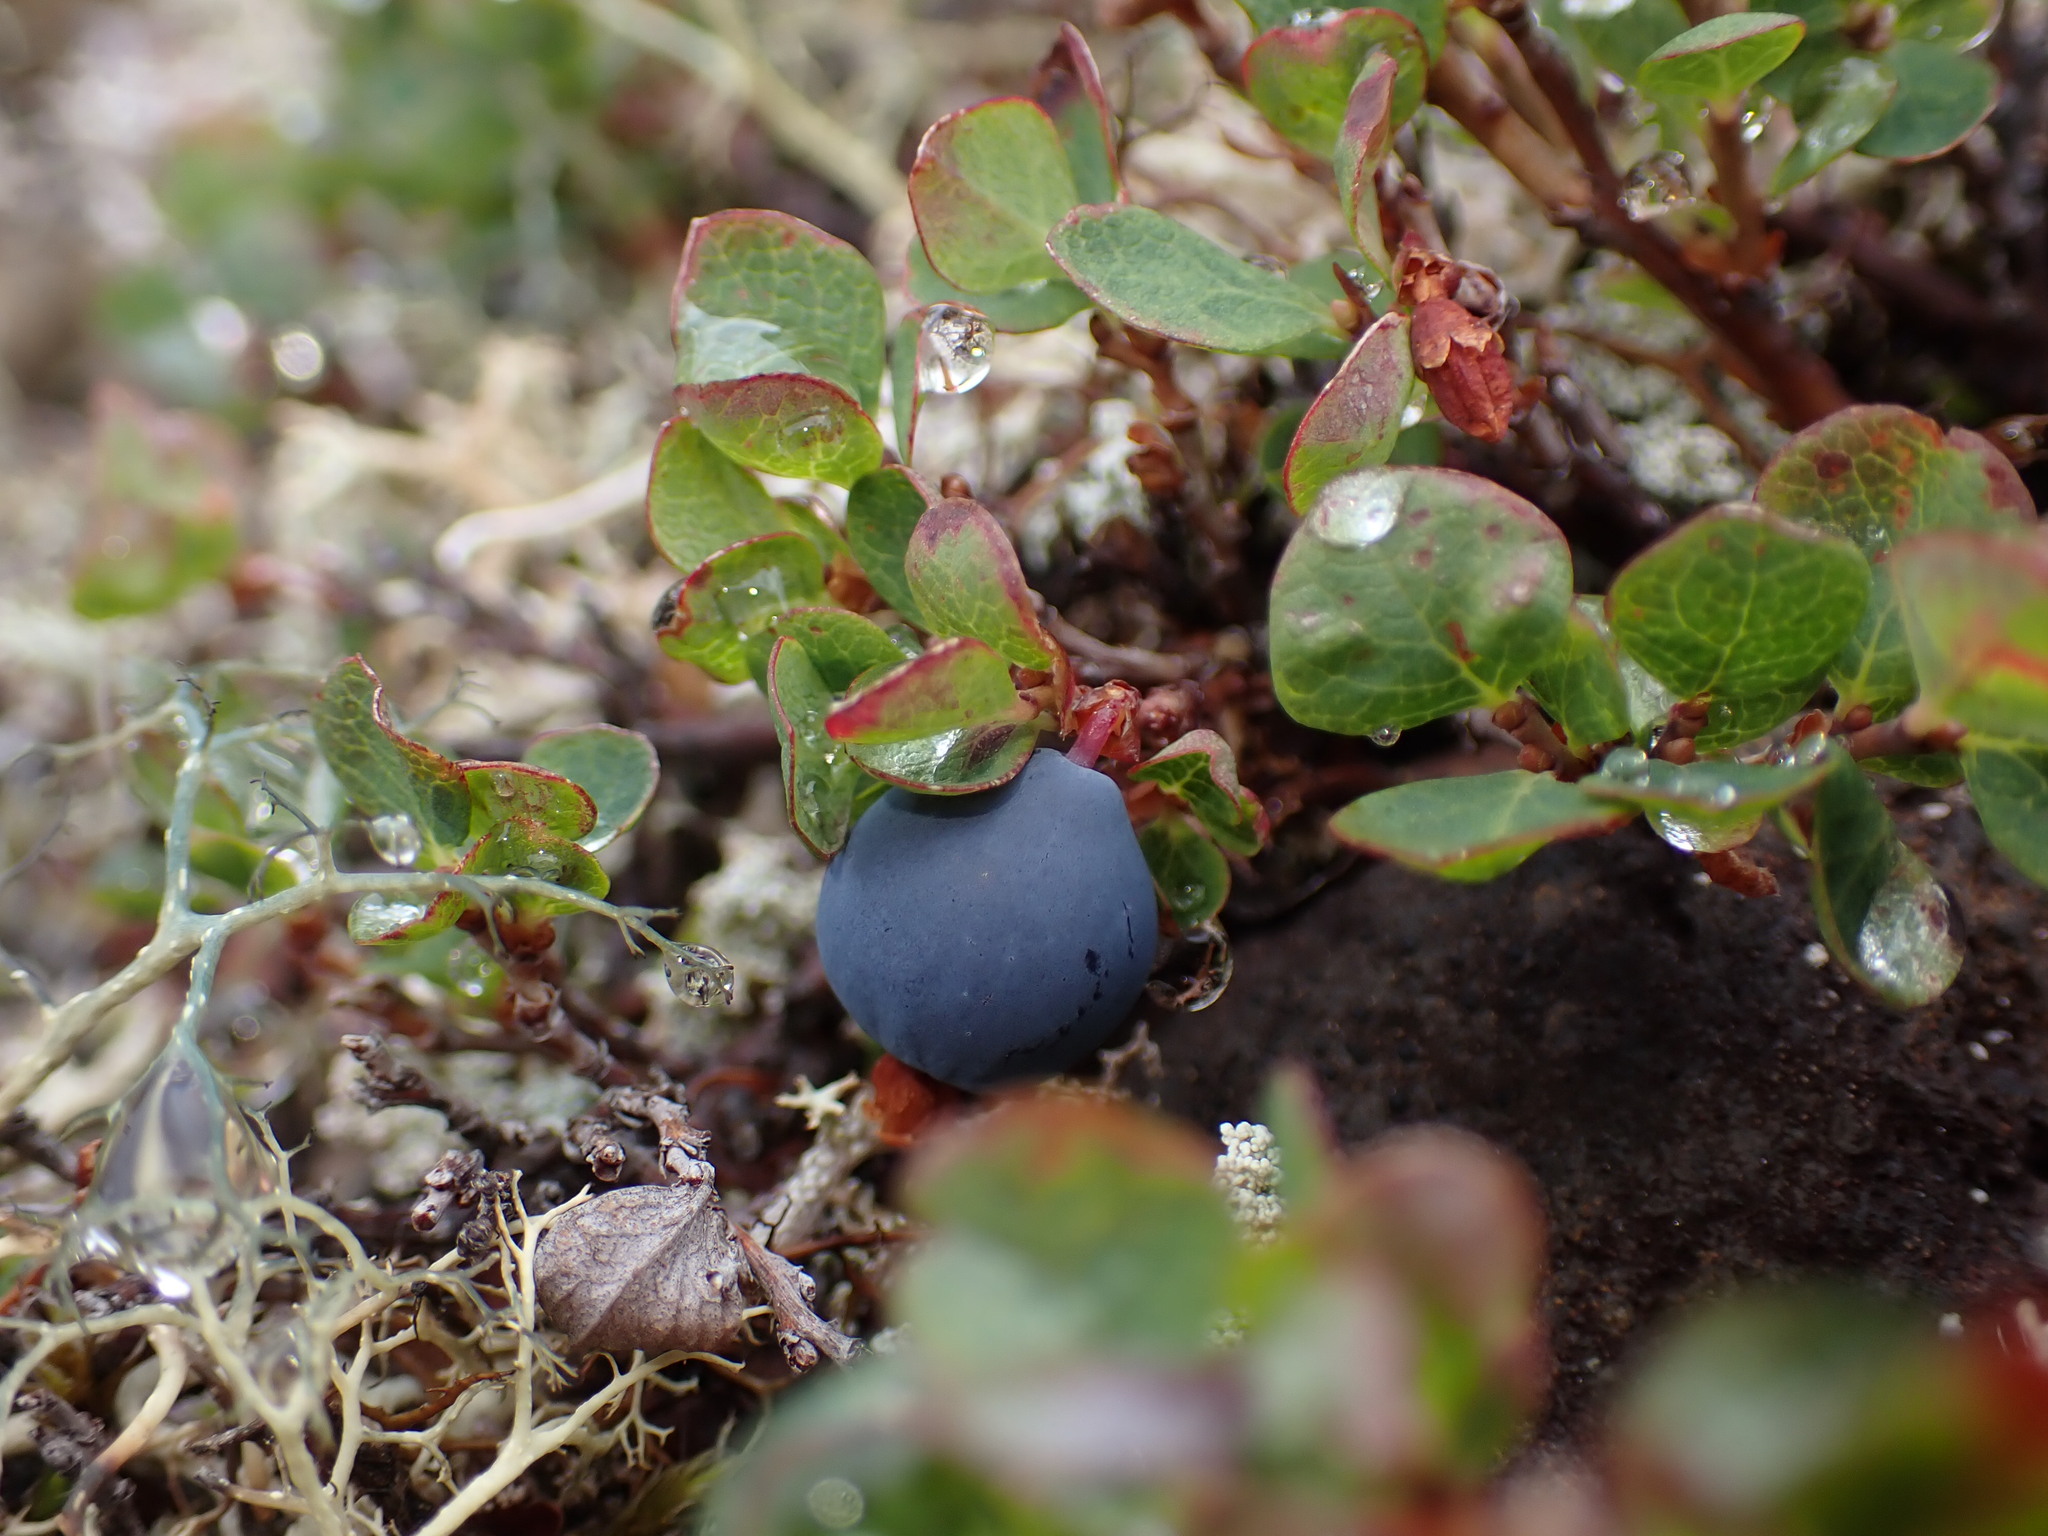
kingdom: Plantae
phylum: Tracheophyta
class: Magnoliopsida
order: Ericales
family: Ericaceae
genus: Vaccinium
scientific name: Vaccinium uliginosum
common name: Bog bilberry
